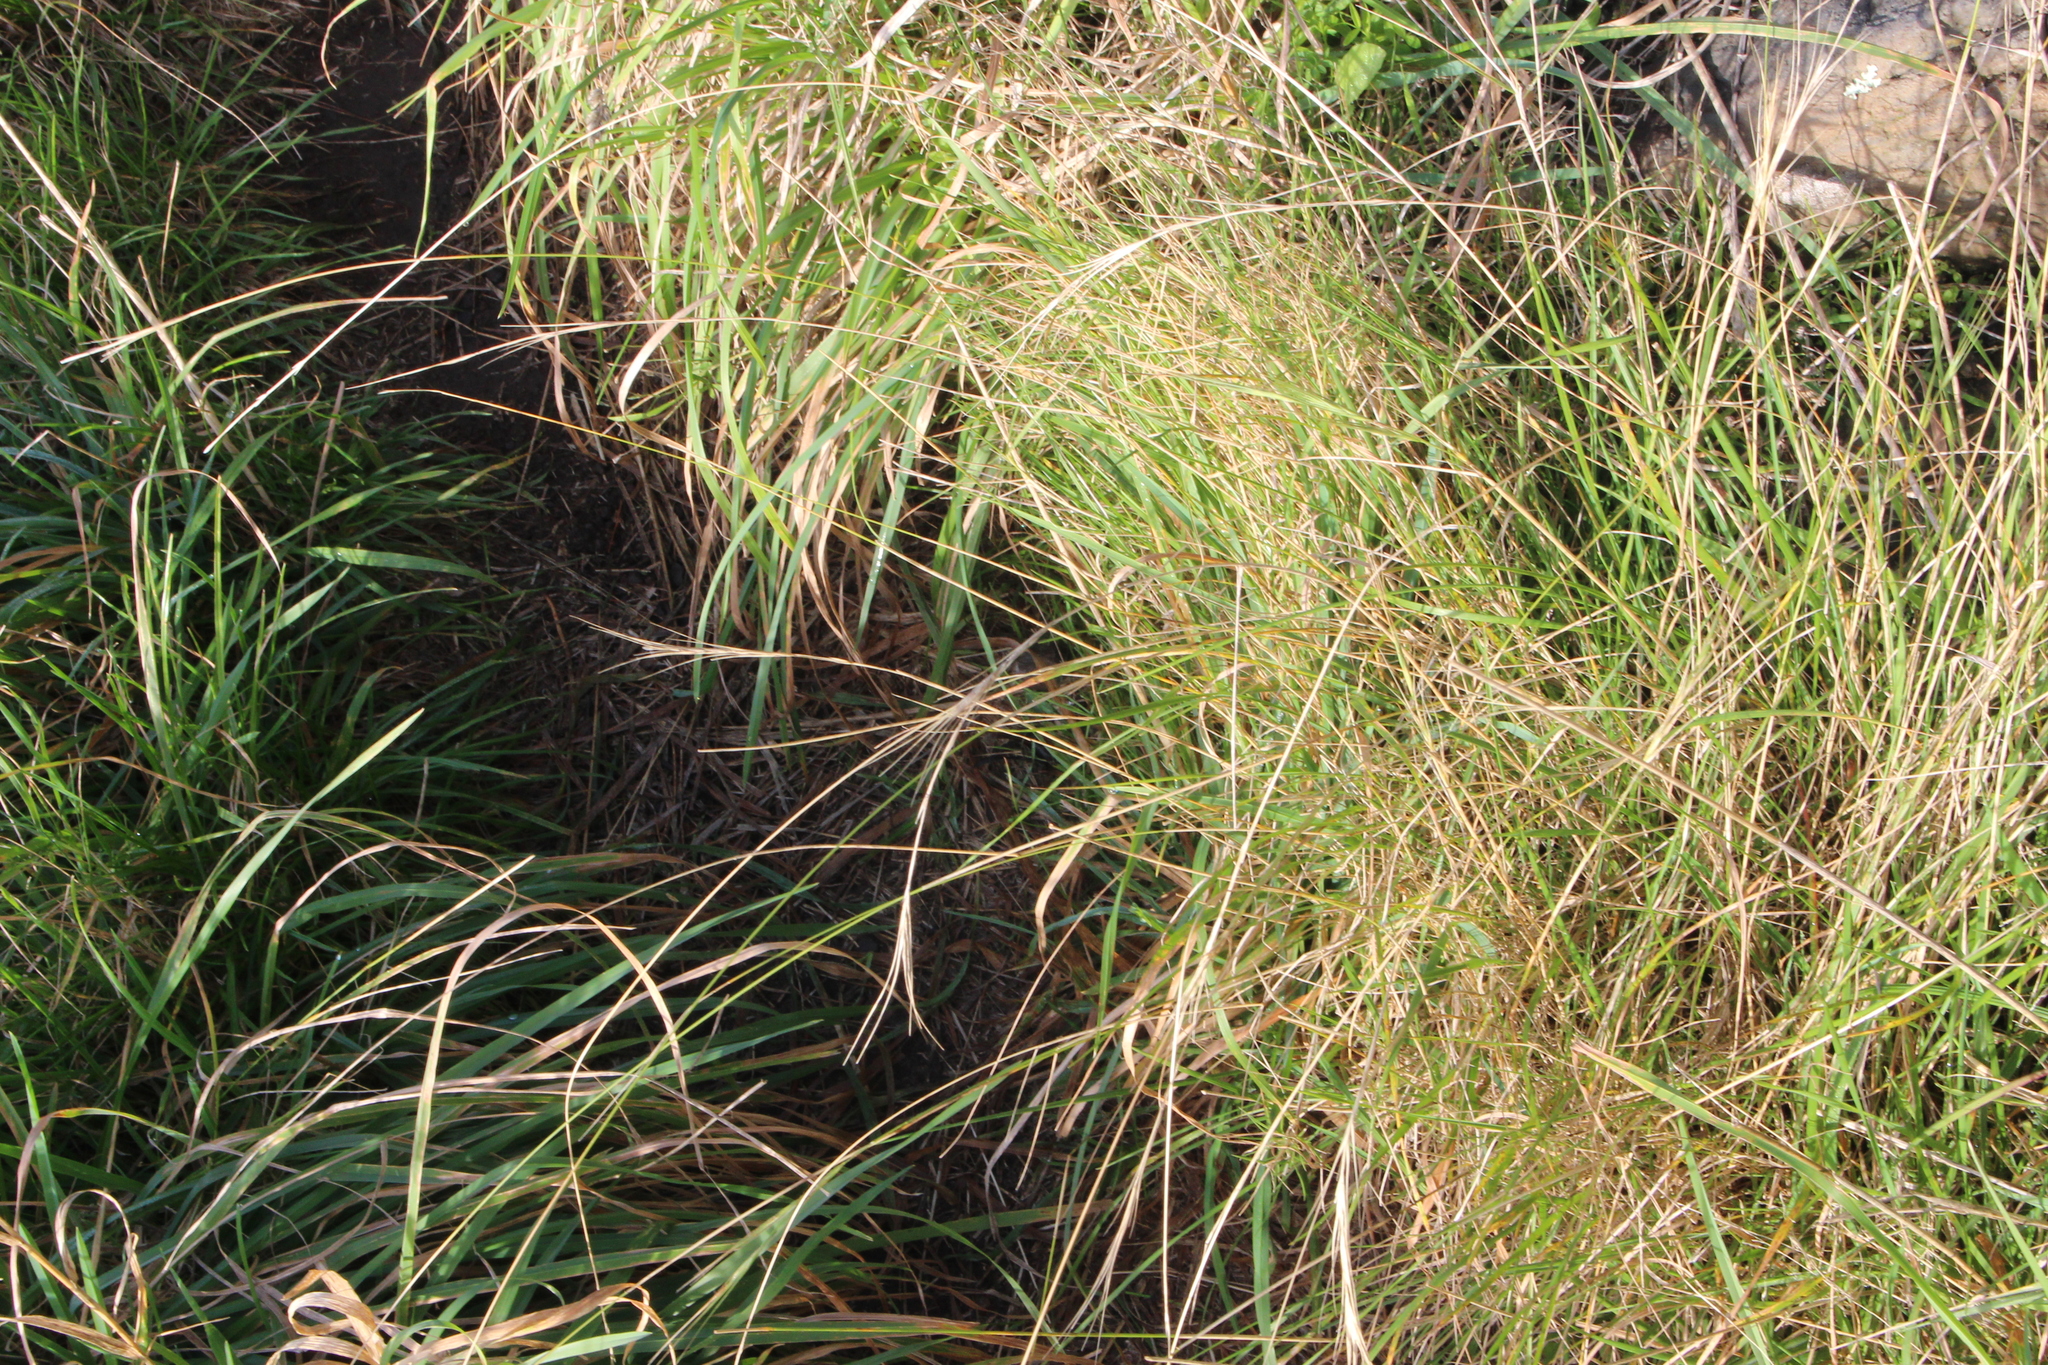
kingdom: Plantae
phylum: Tracheophyta
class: Liliopsida
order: Poales
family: Poaceae
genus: Anthosachne
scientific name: Anthosachne scabra
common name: Common wheatgrass
